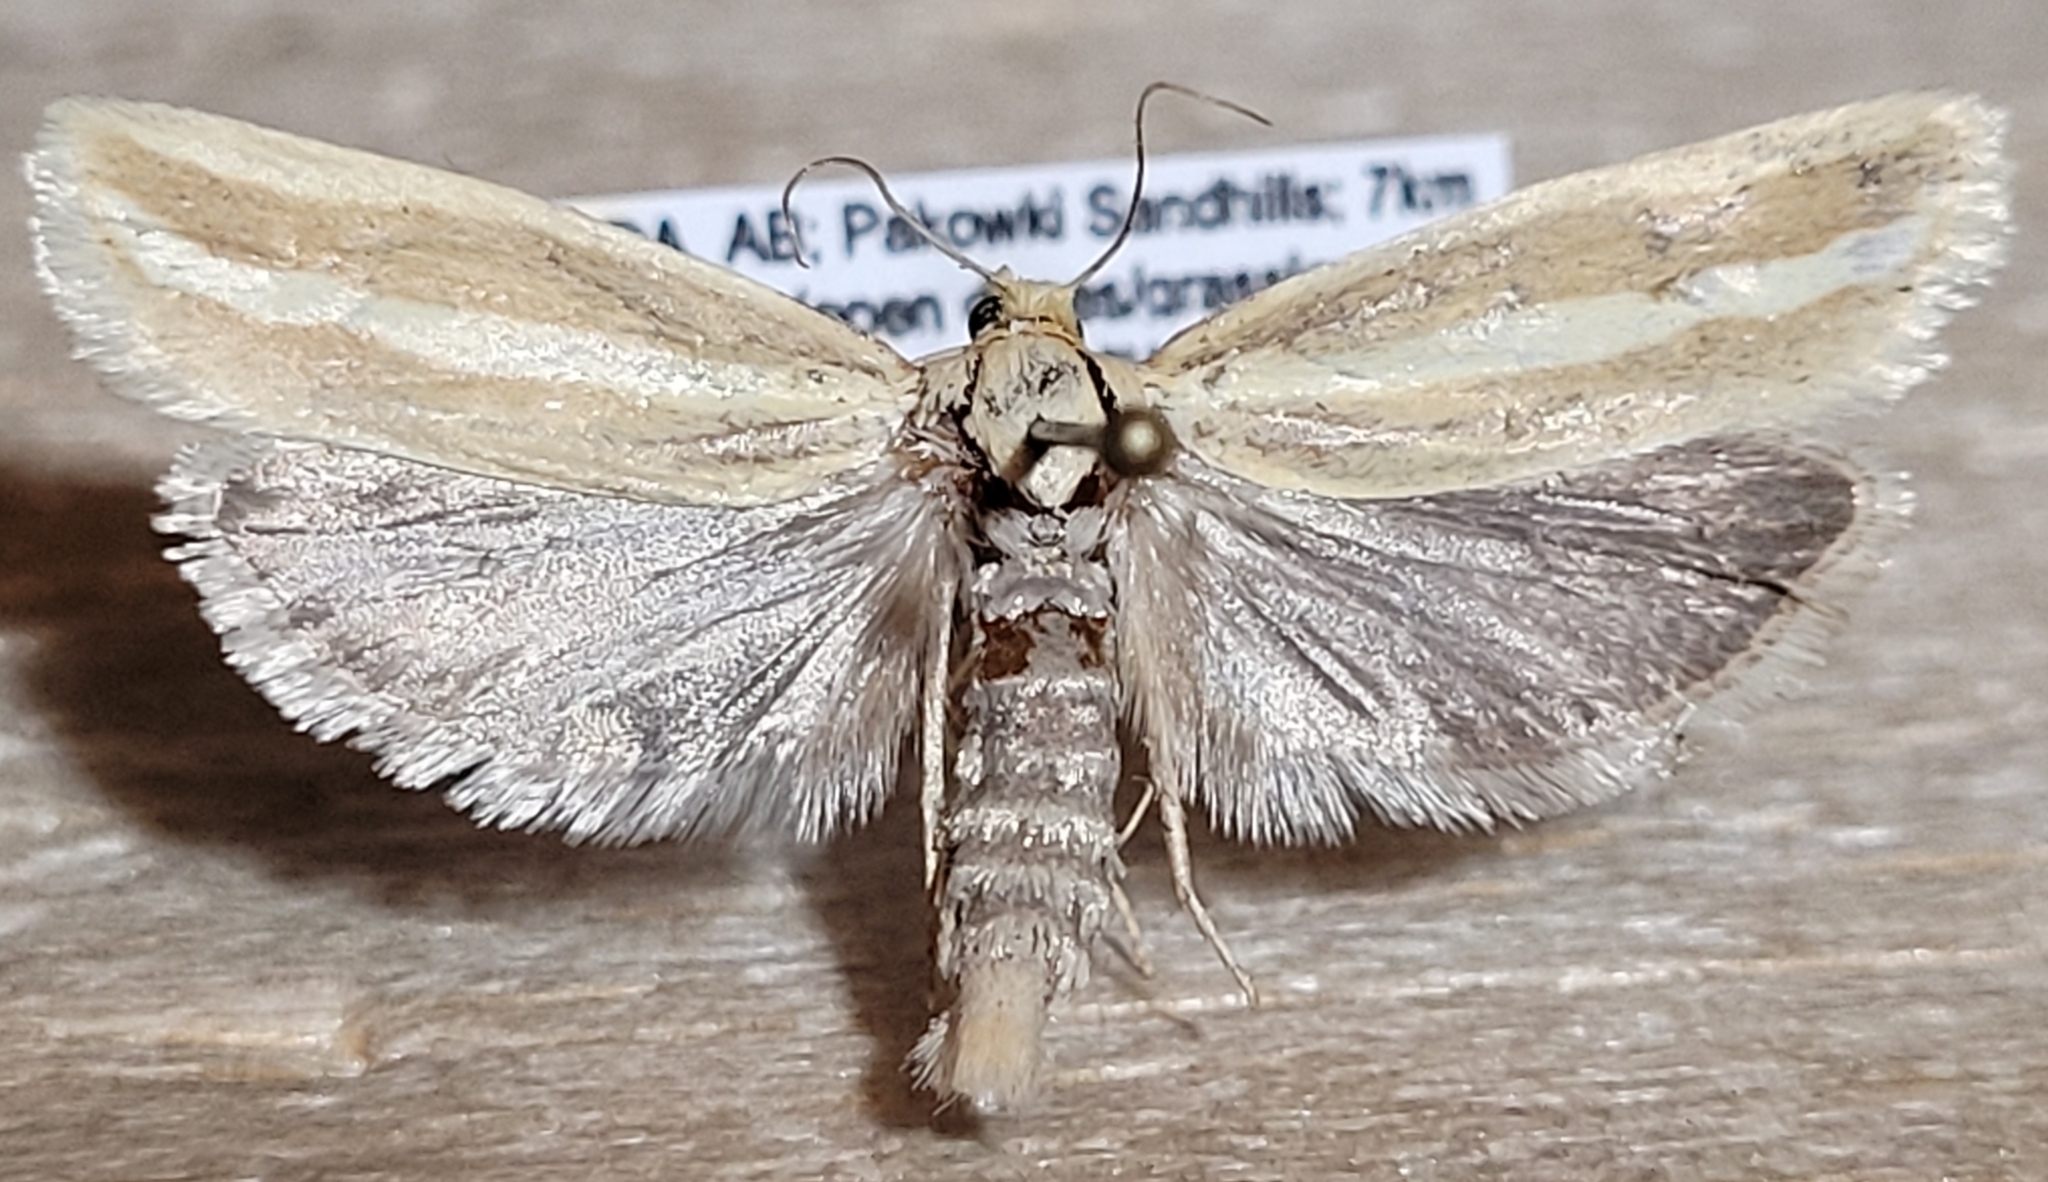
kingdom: Animalia
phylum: Arthropoda
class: Insecta
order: Lepidoptera
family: Tortricidae
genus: Pelochrista
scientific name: Pelochrista fandana
